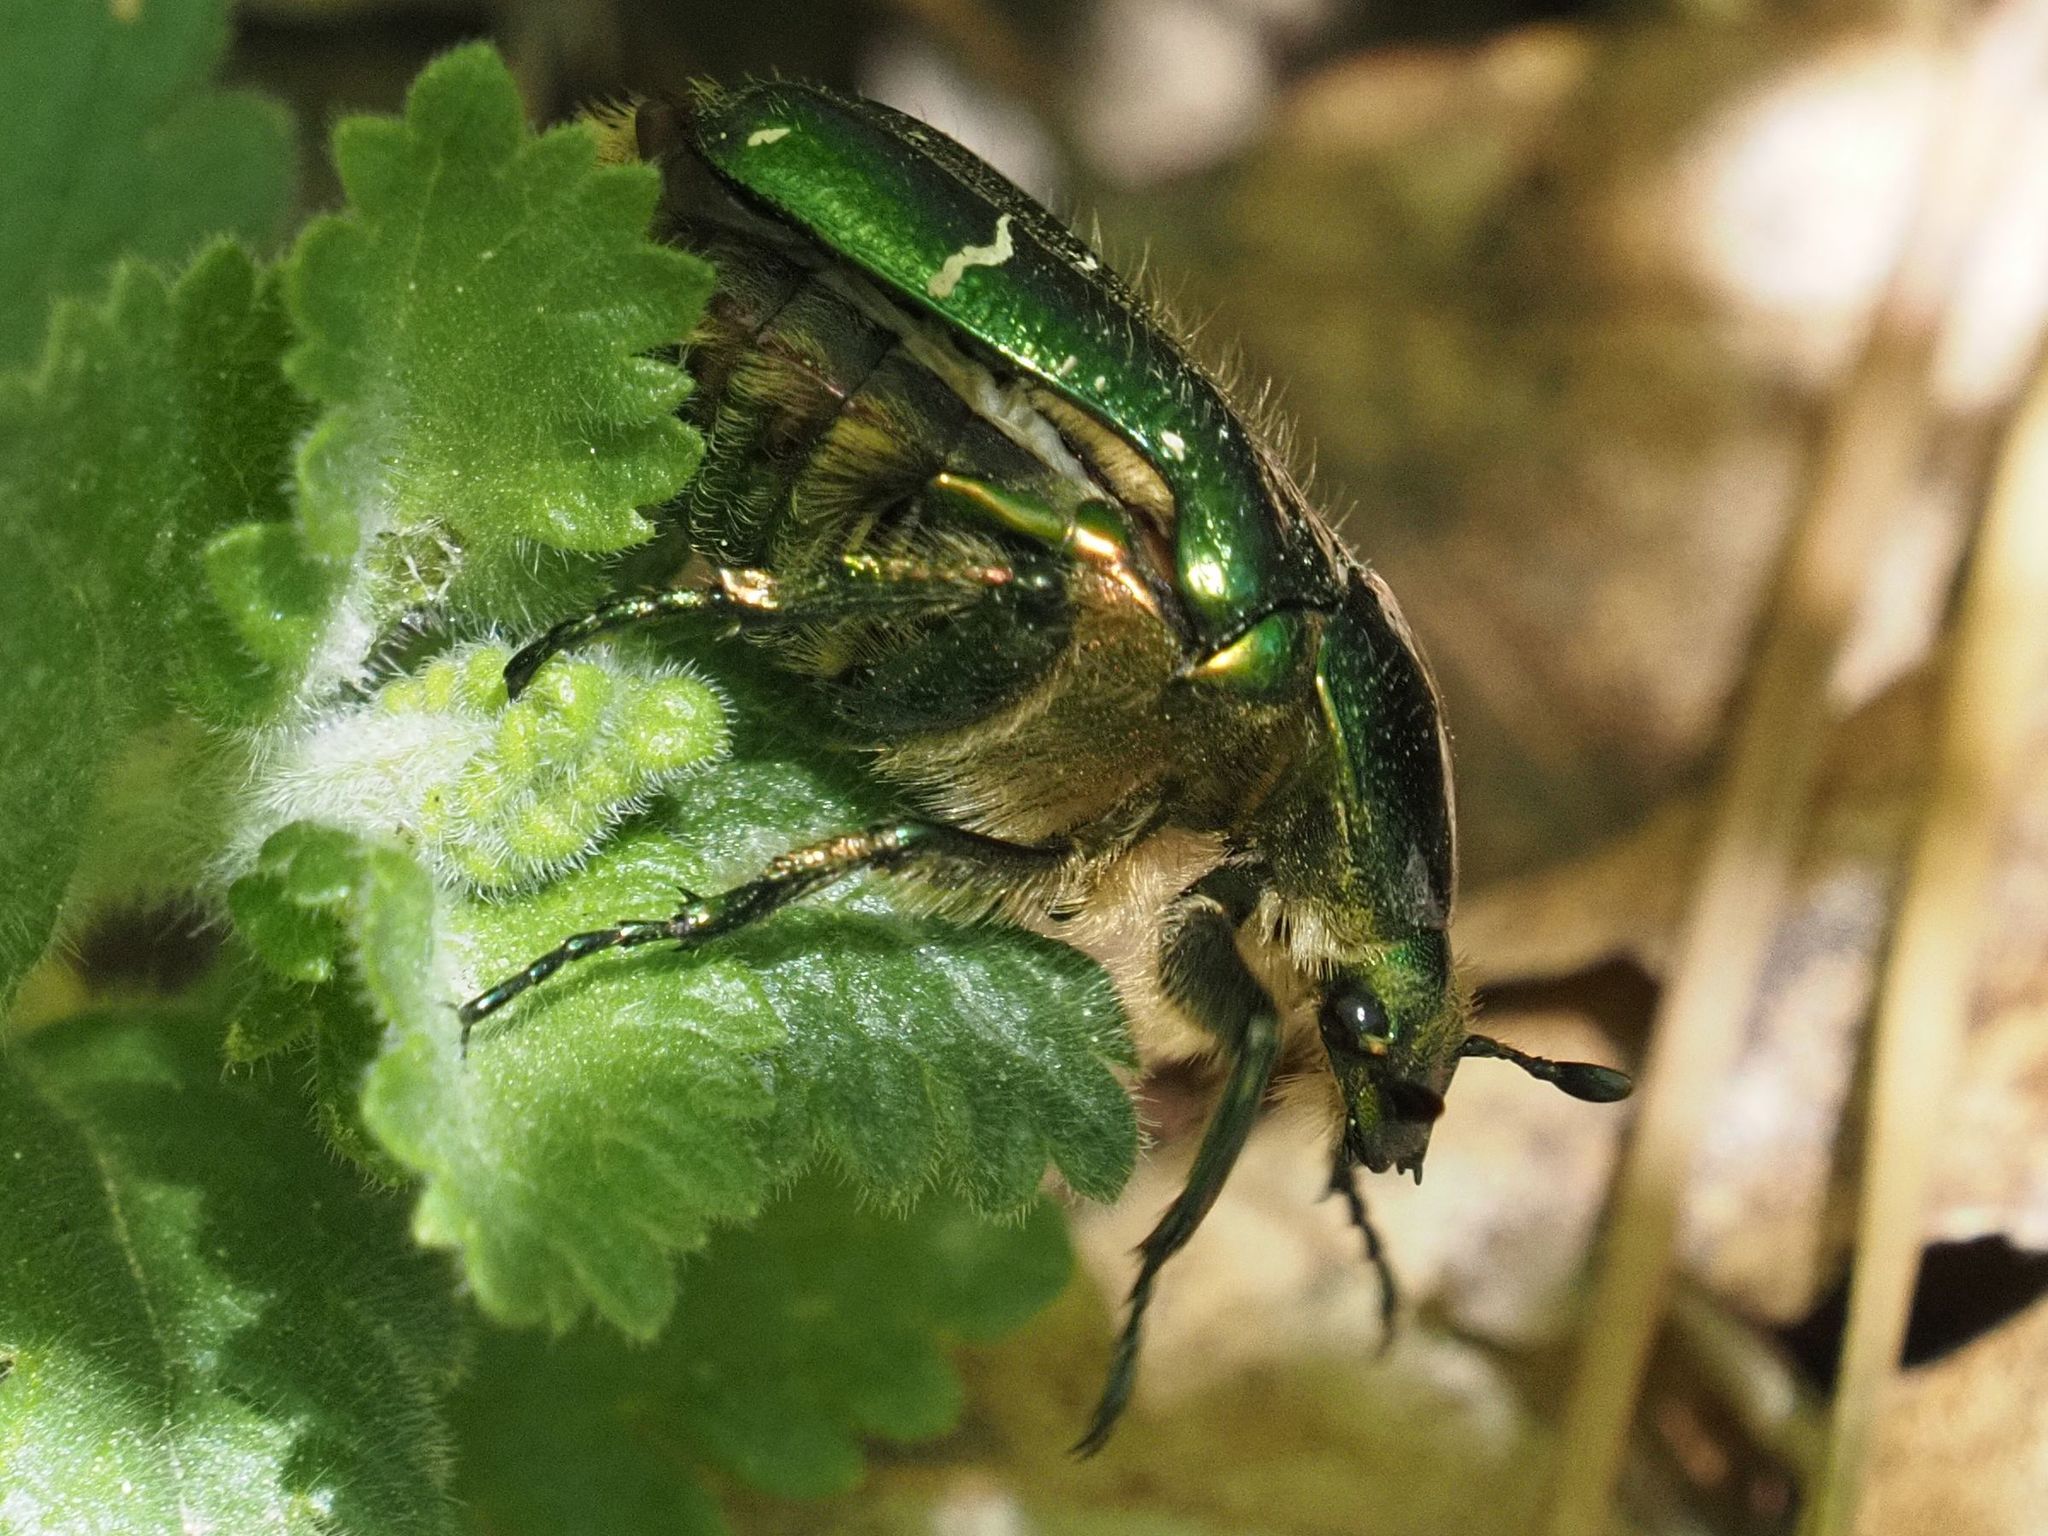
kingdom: Animalia
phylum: Arthropoda
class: Insecta
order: Coleoptera
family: Scarabaeidae
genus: Cetonia
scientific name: Cetonia aurata
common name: Rose chafer
